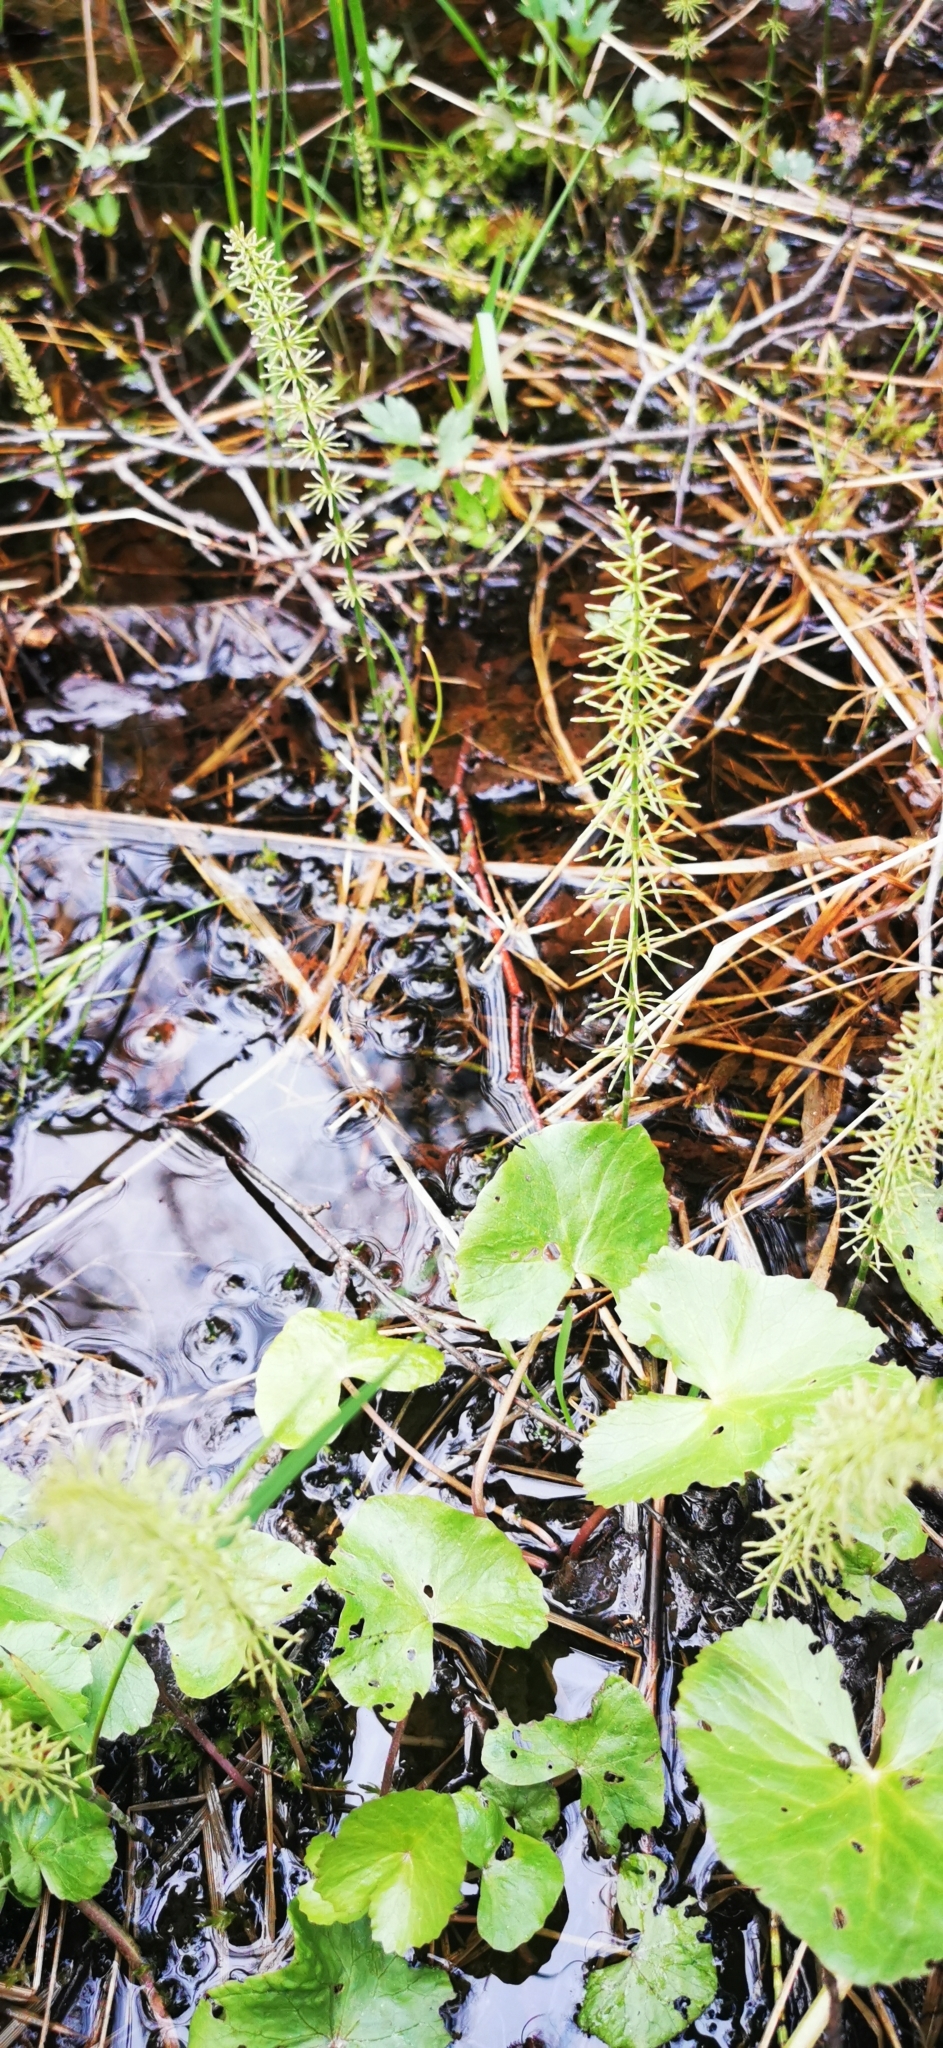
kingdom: Plantae
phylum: Tracheophyta
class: Polypodiopsida
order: Equisetales
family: Equisetaceae
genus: Equisetum
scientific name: Equisetum pratense
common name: Meadow horsetail
